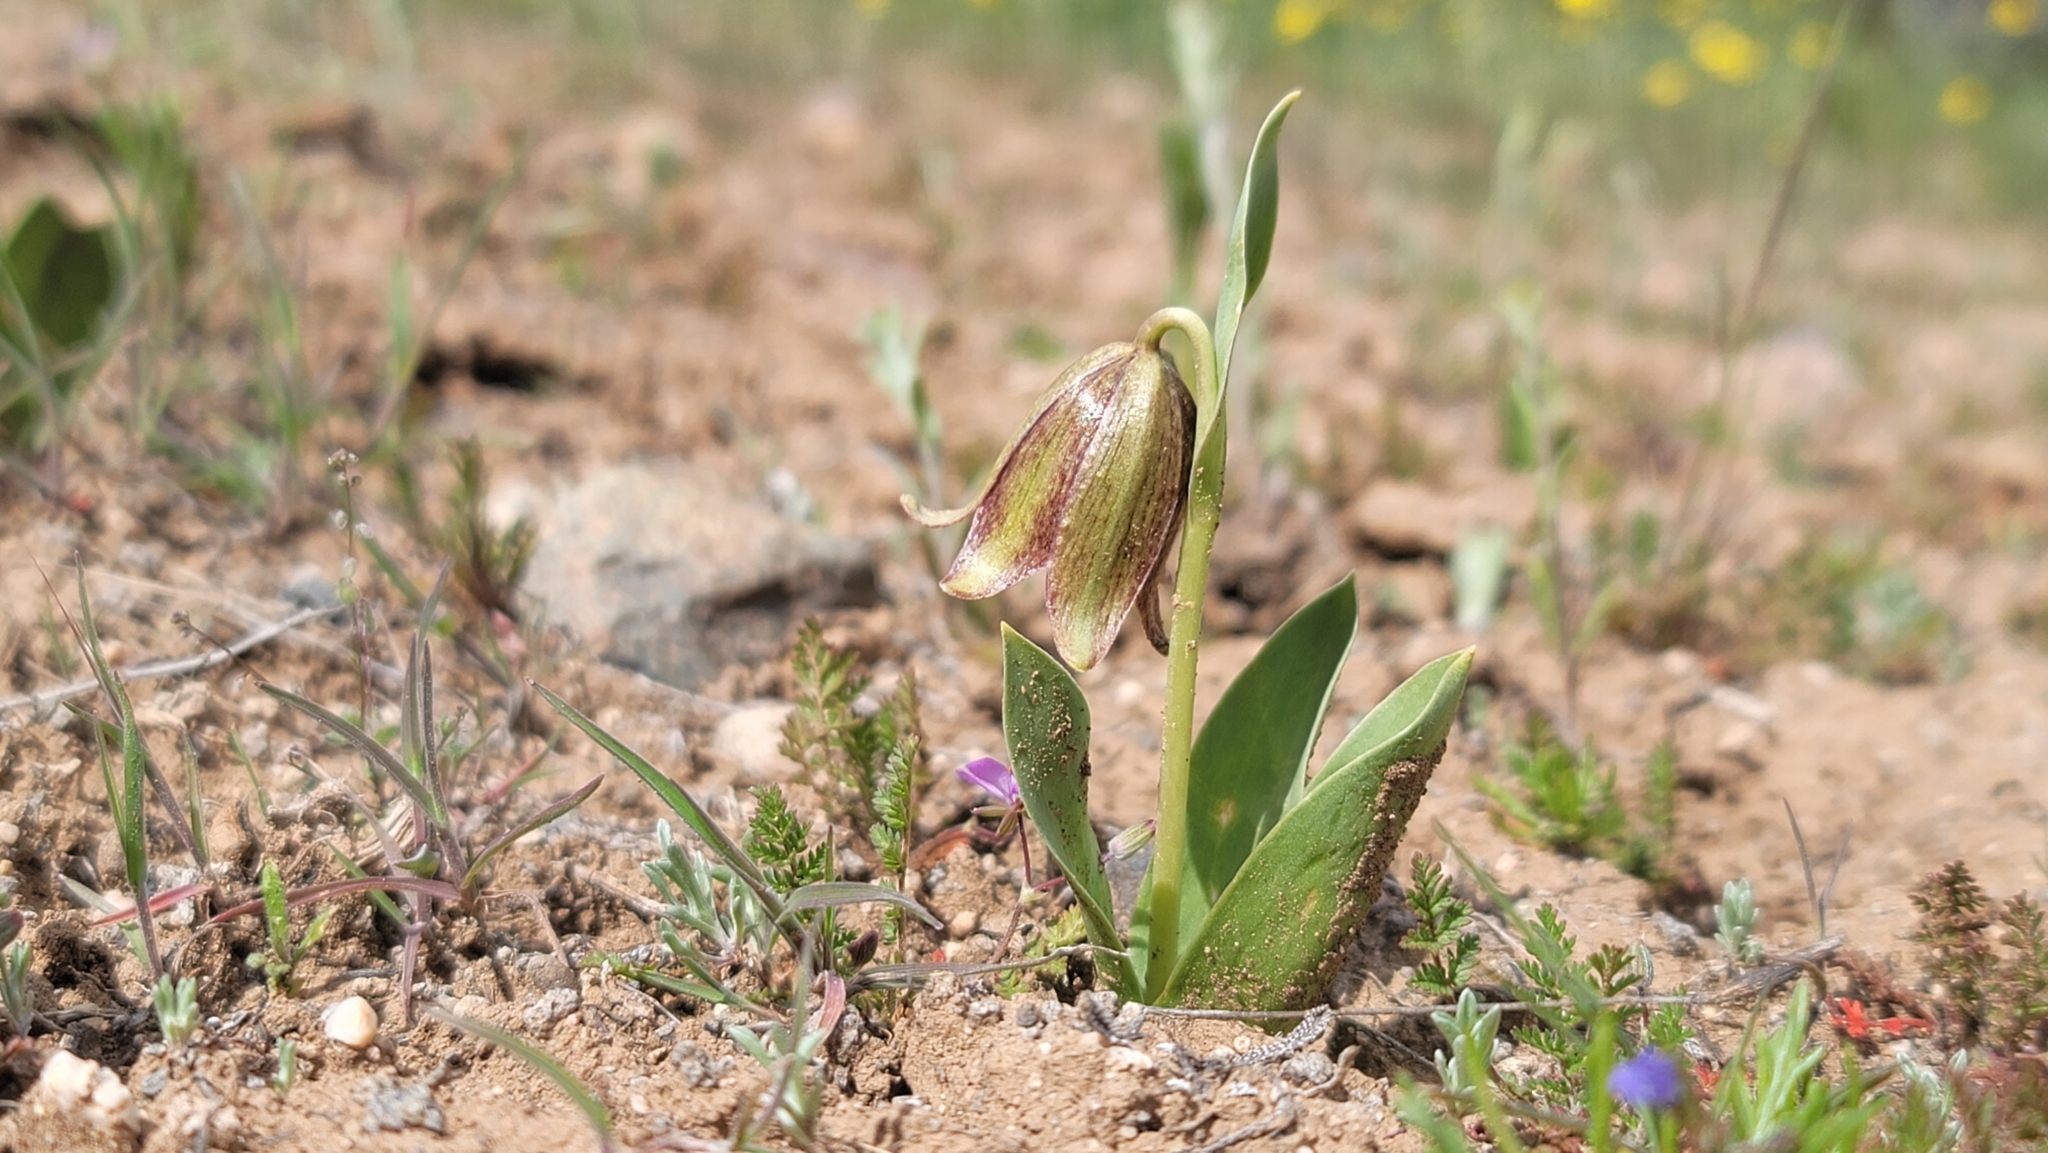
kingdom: Plantae
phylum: Tracheophyta
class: Liliopsida
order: Liliales
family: Liliaceae
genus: Fritillaria
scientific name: Fritillaria agrestis
